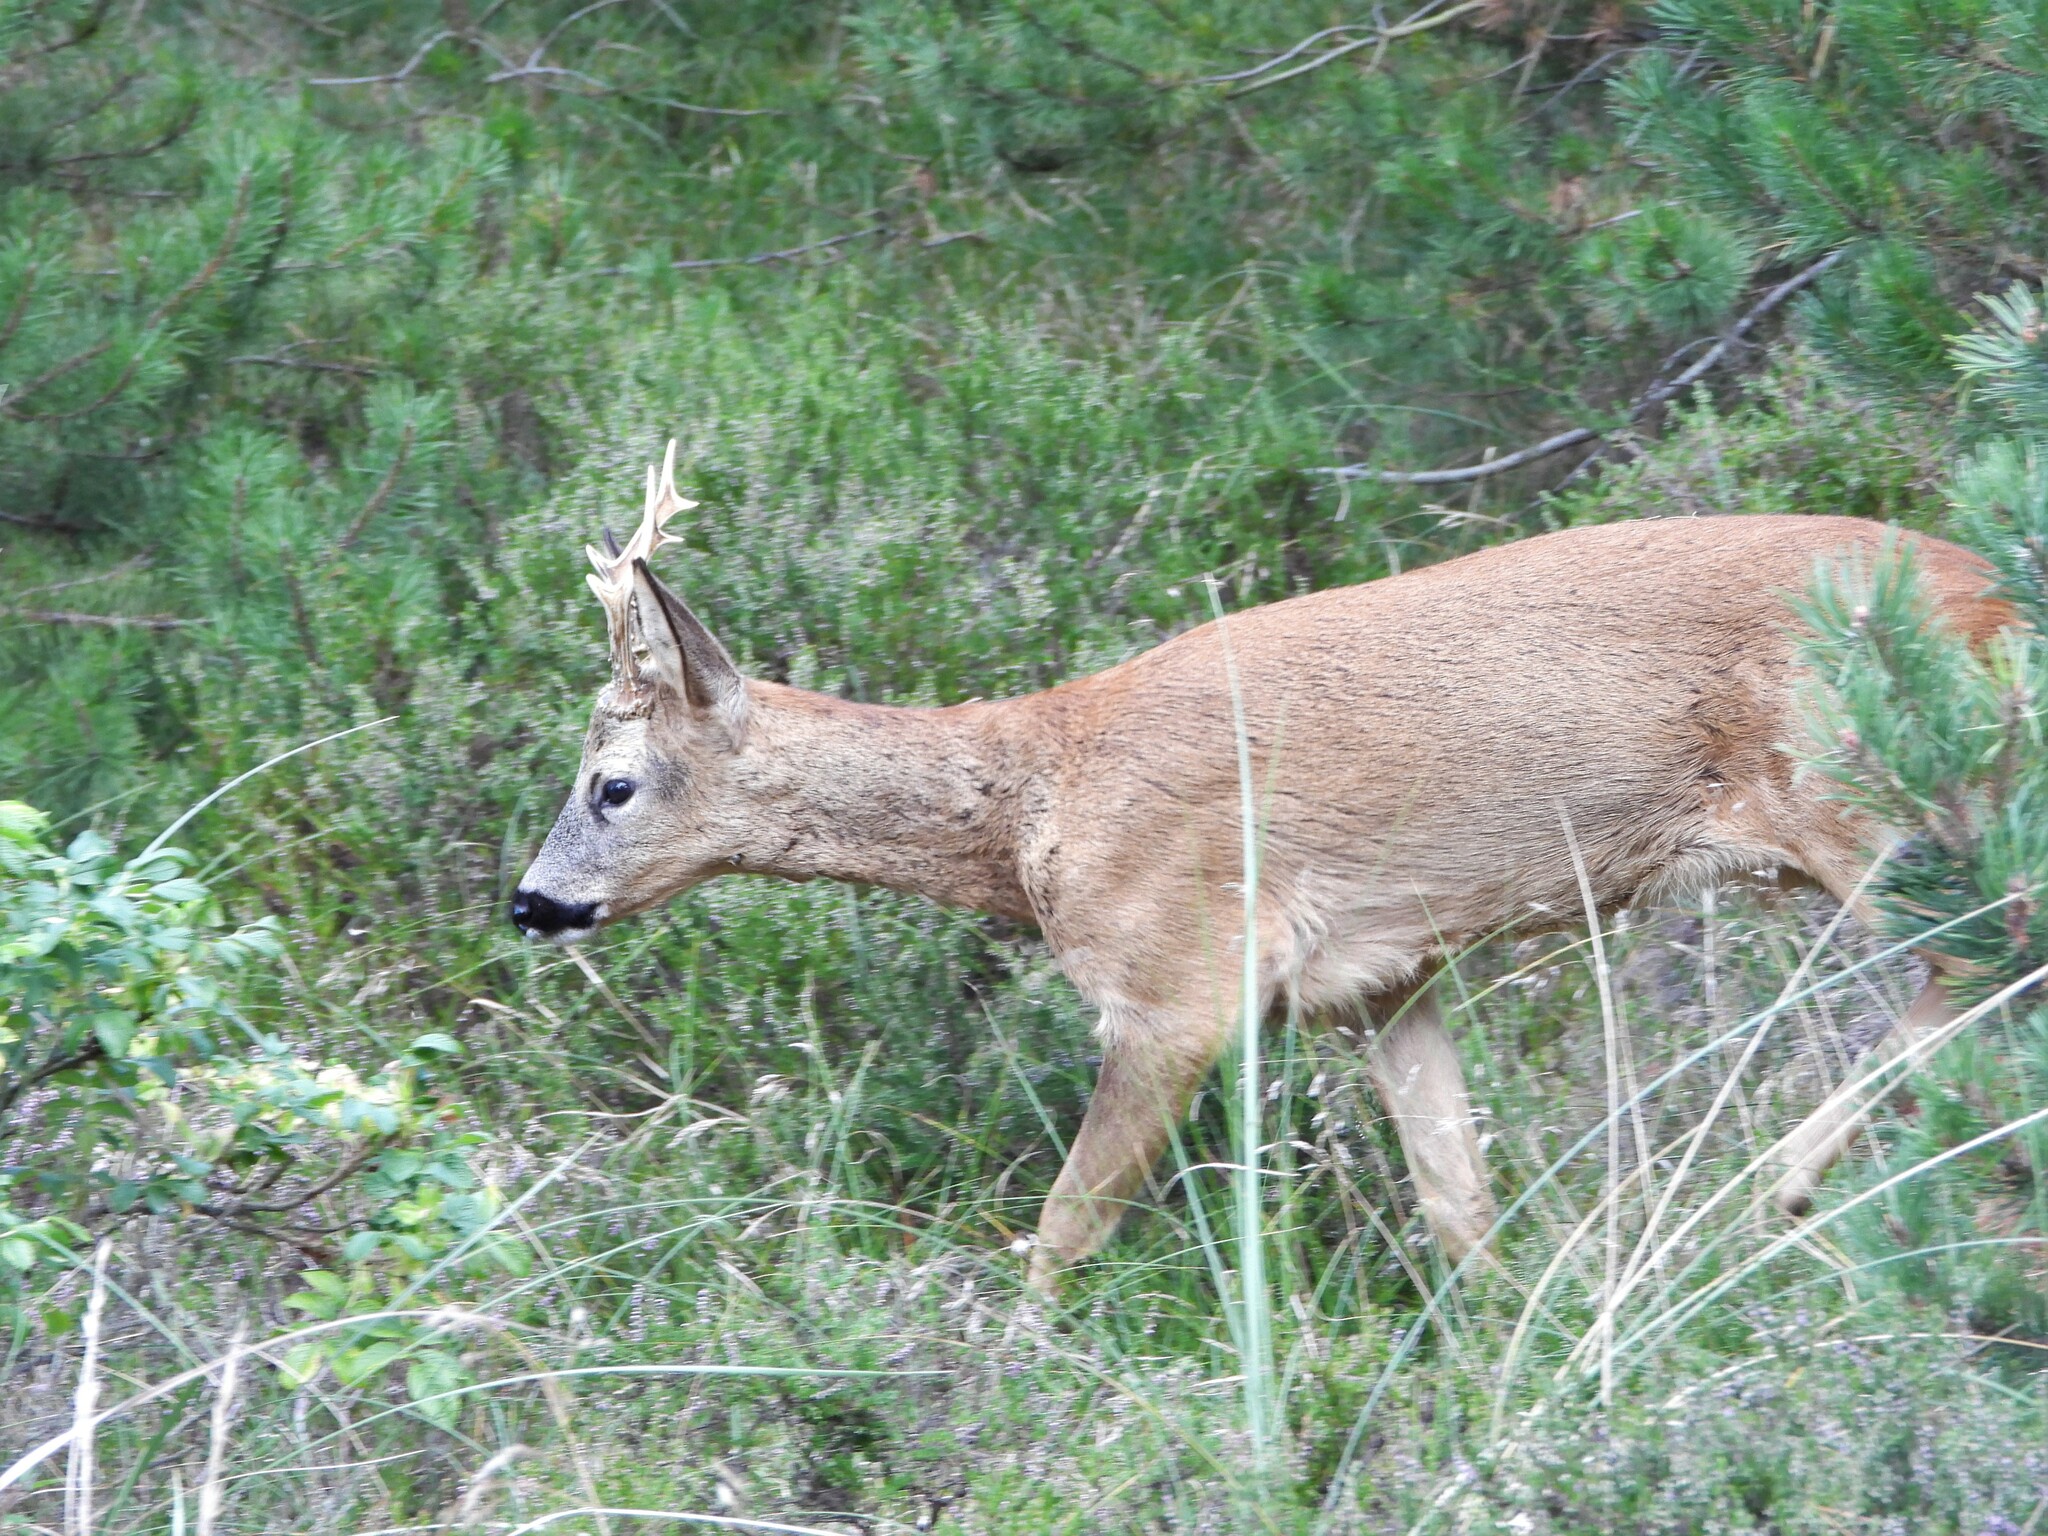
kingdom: Animalia
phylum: Chordata
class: Mammalia
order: Artiodactyla
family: Cervidae
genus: Capreolus
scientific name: Capreolus capreolus
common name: Western roe deer
